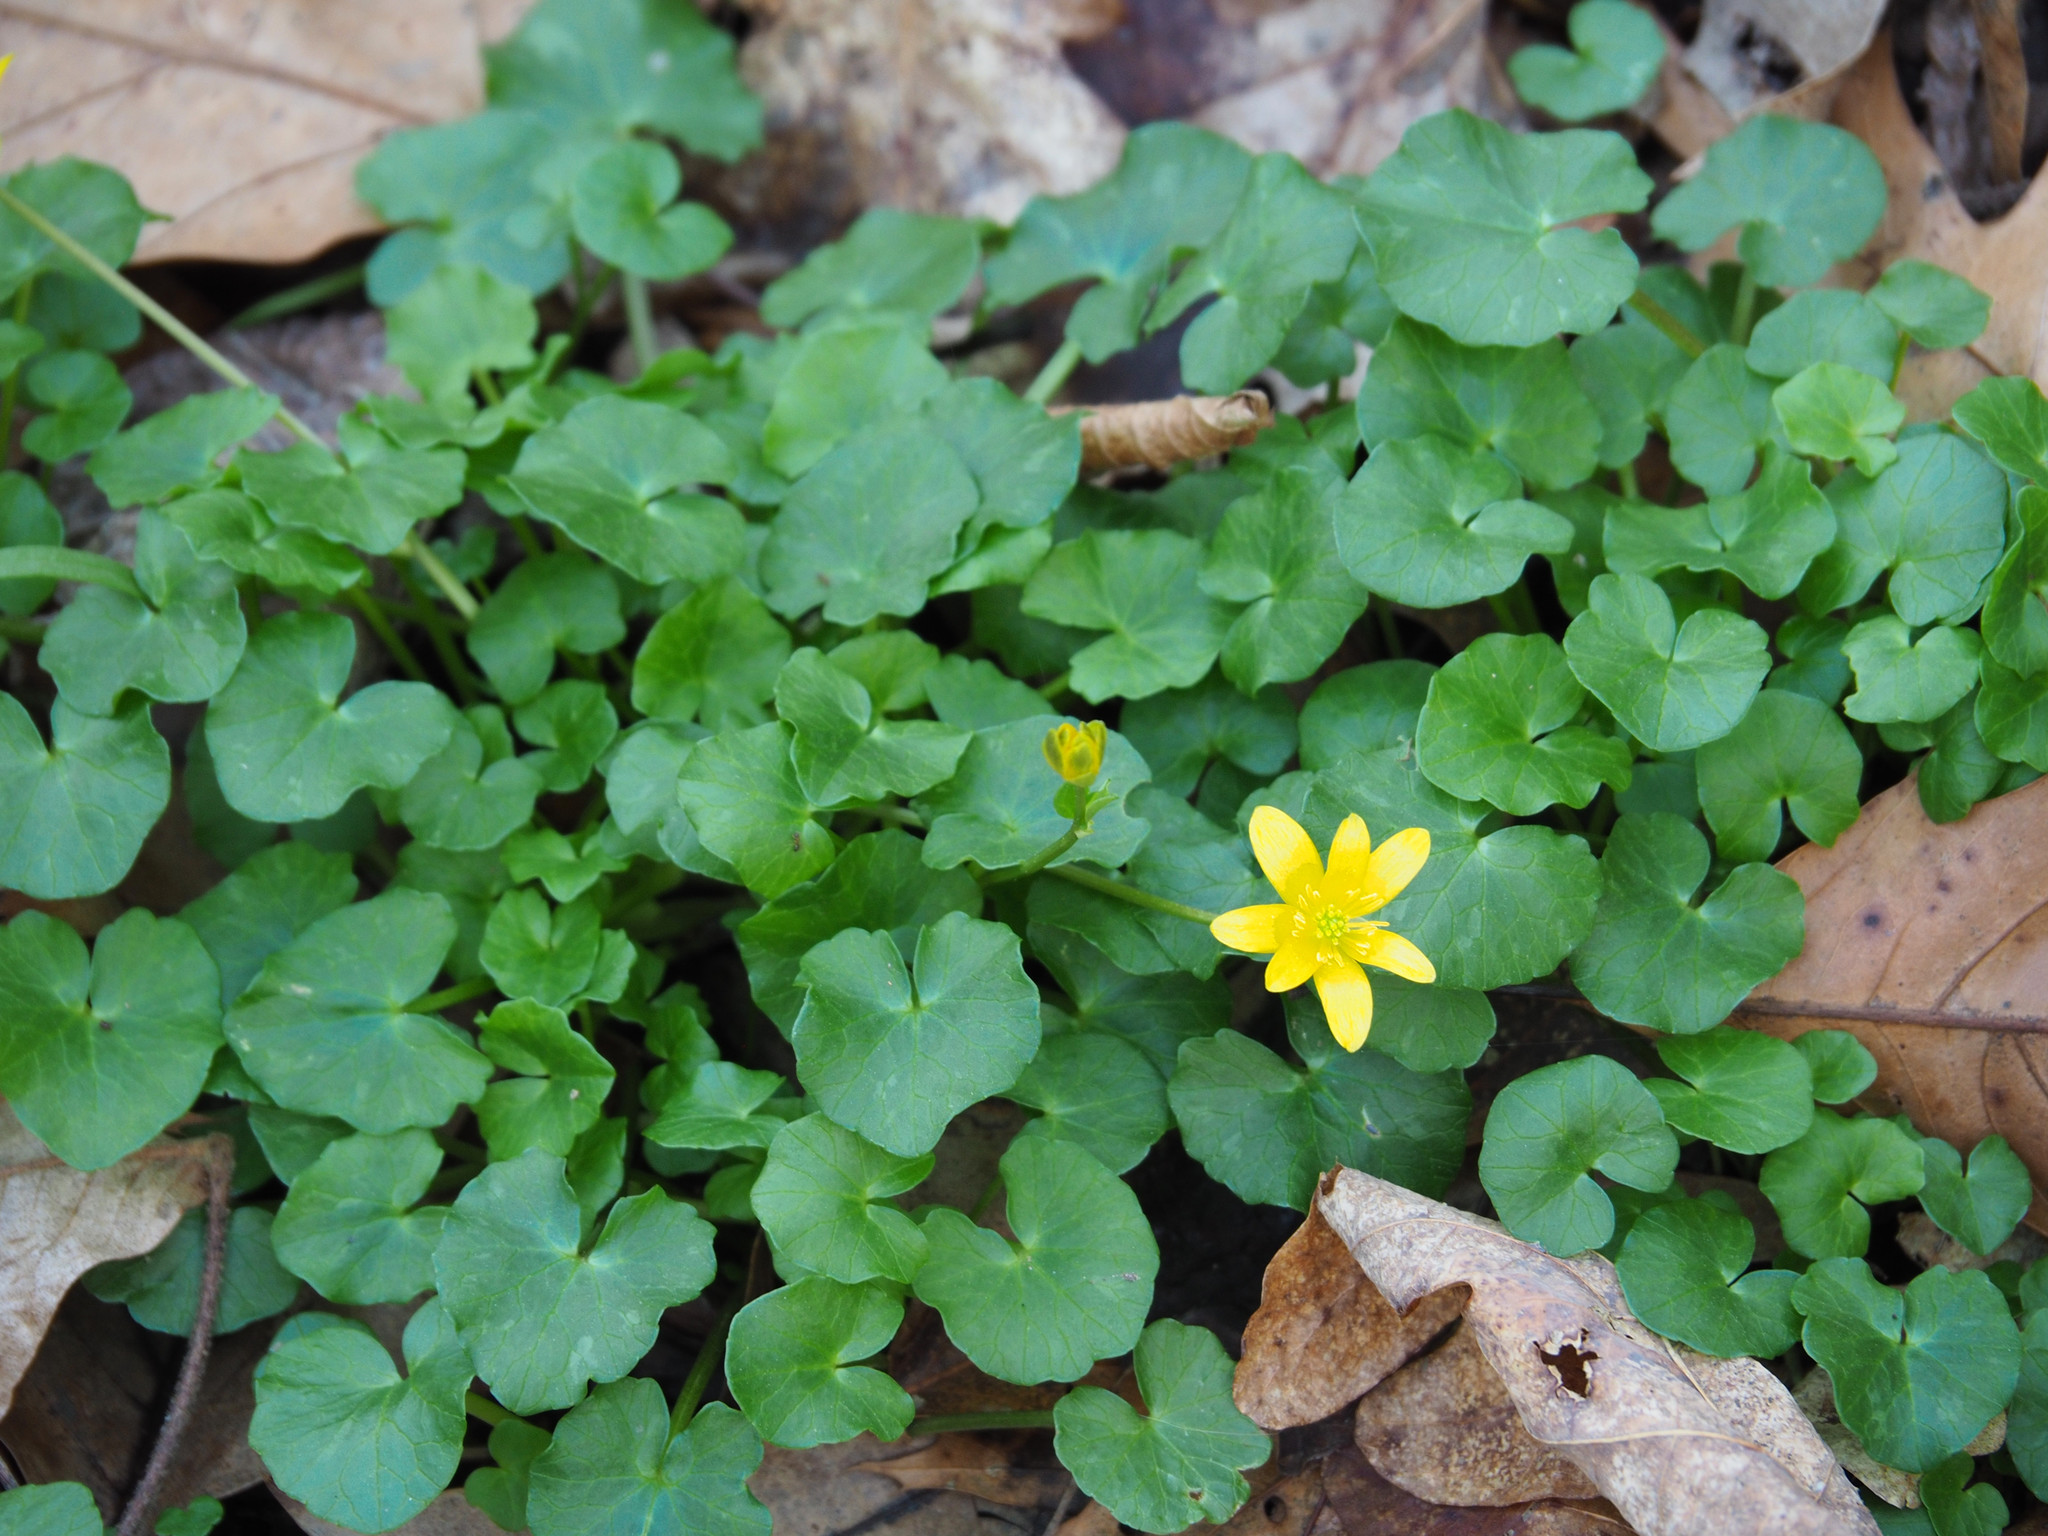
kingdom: Plantae
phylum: Tracheophyta
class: Magnoliopsida
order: Ranunculales
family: Ranunculaceae
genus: Ficaria
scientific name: Ficaria verna
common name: Lesser celandine
